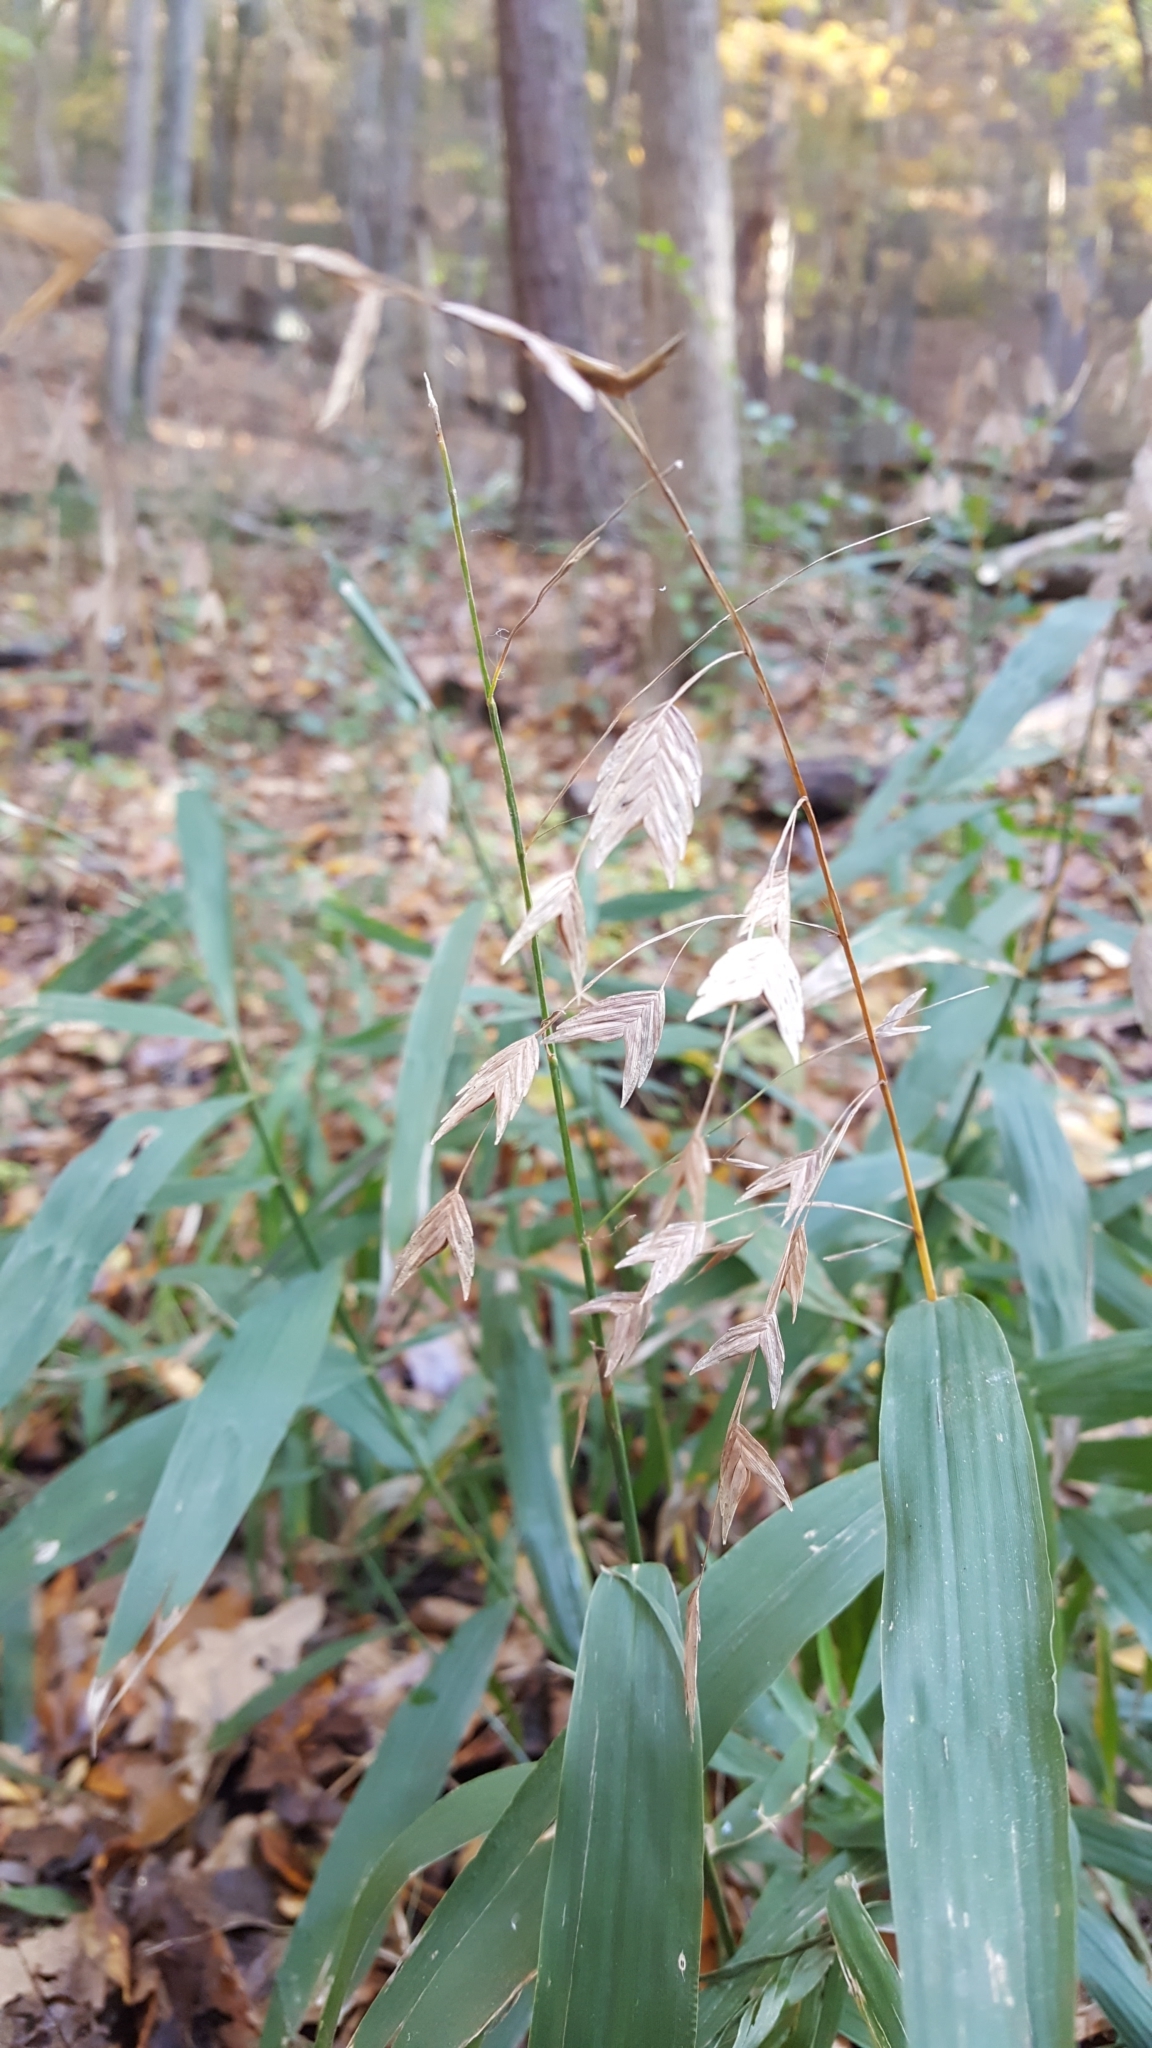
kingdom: Plantae
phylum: Tracheophyta
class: Liliopsida
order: Poales
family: Poaceae
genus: Chasmanthium
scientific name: Chasmanthium latifolium
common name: Broad-leaved chasmanthium
